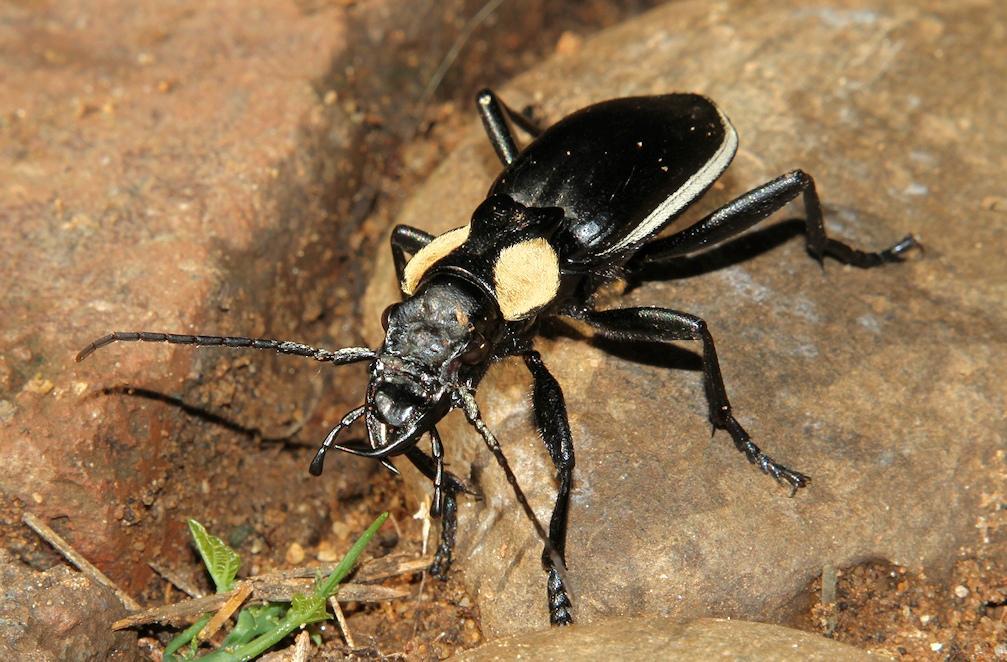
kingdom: Animalia
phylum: Arthropoda
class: Insecta
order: Coleoptera
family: Carabidae
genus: Anthia
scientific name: Anthia thoracica
